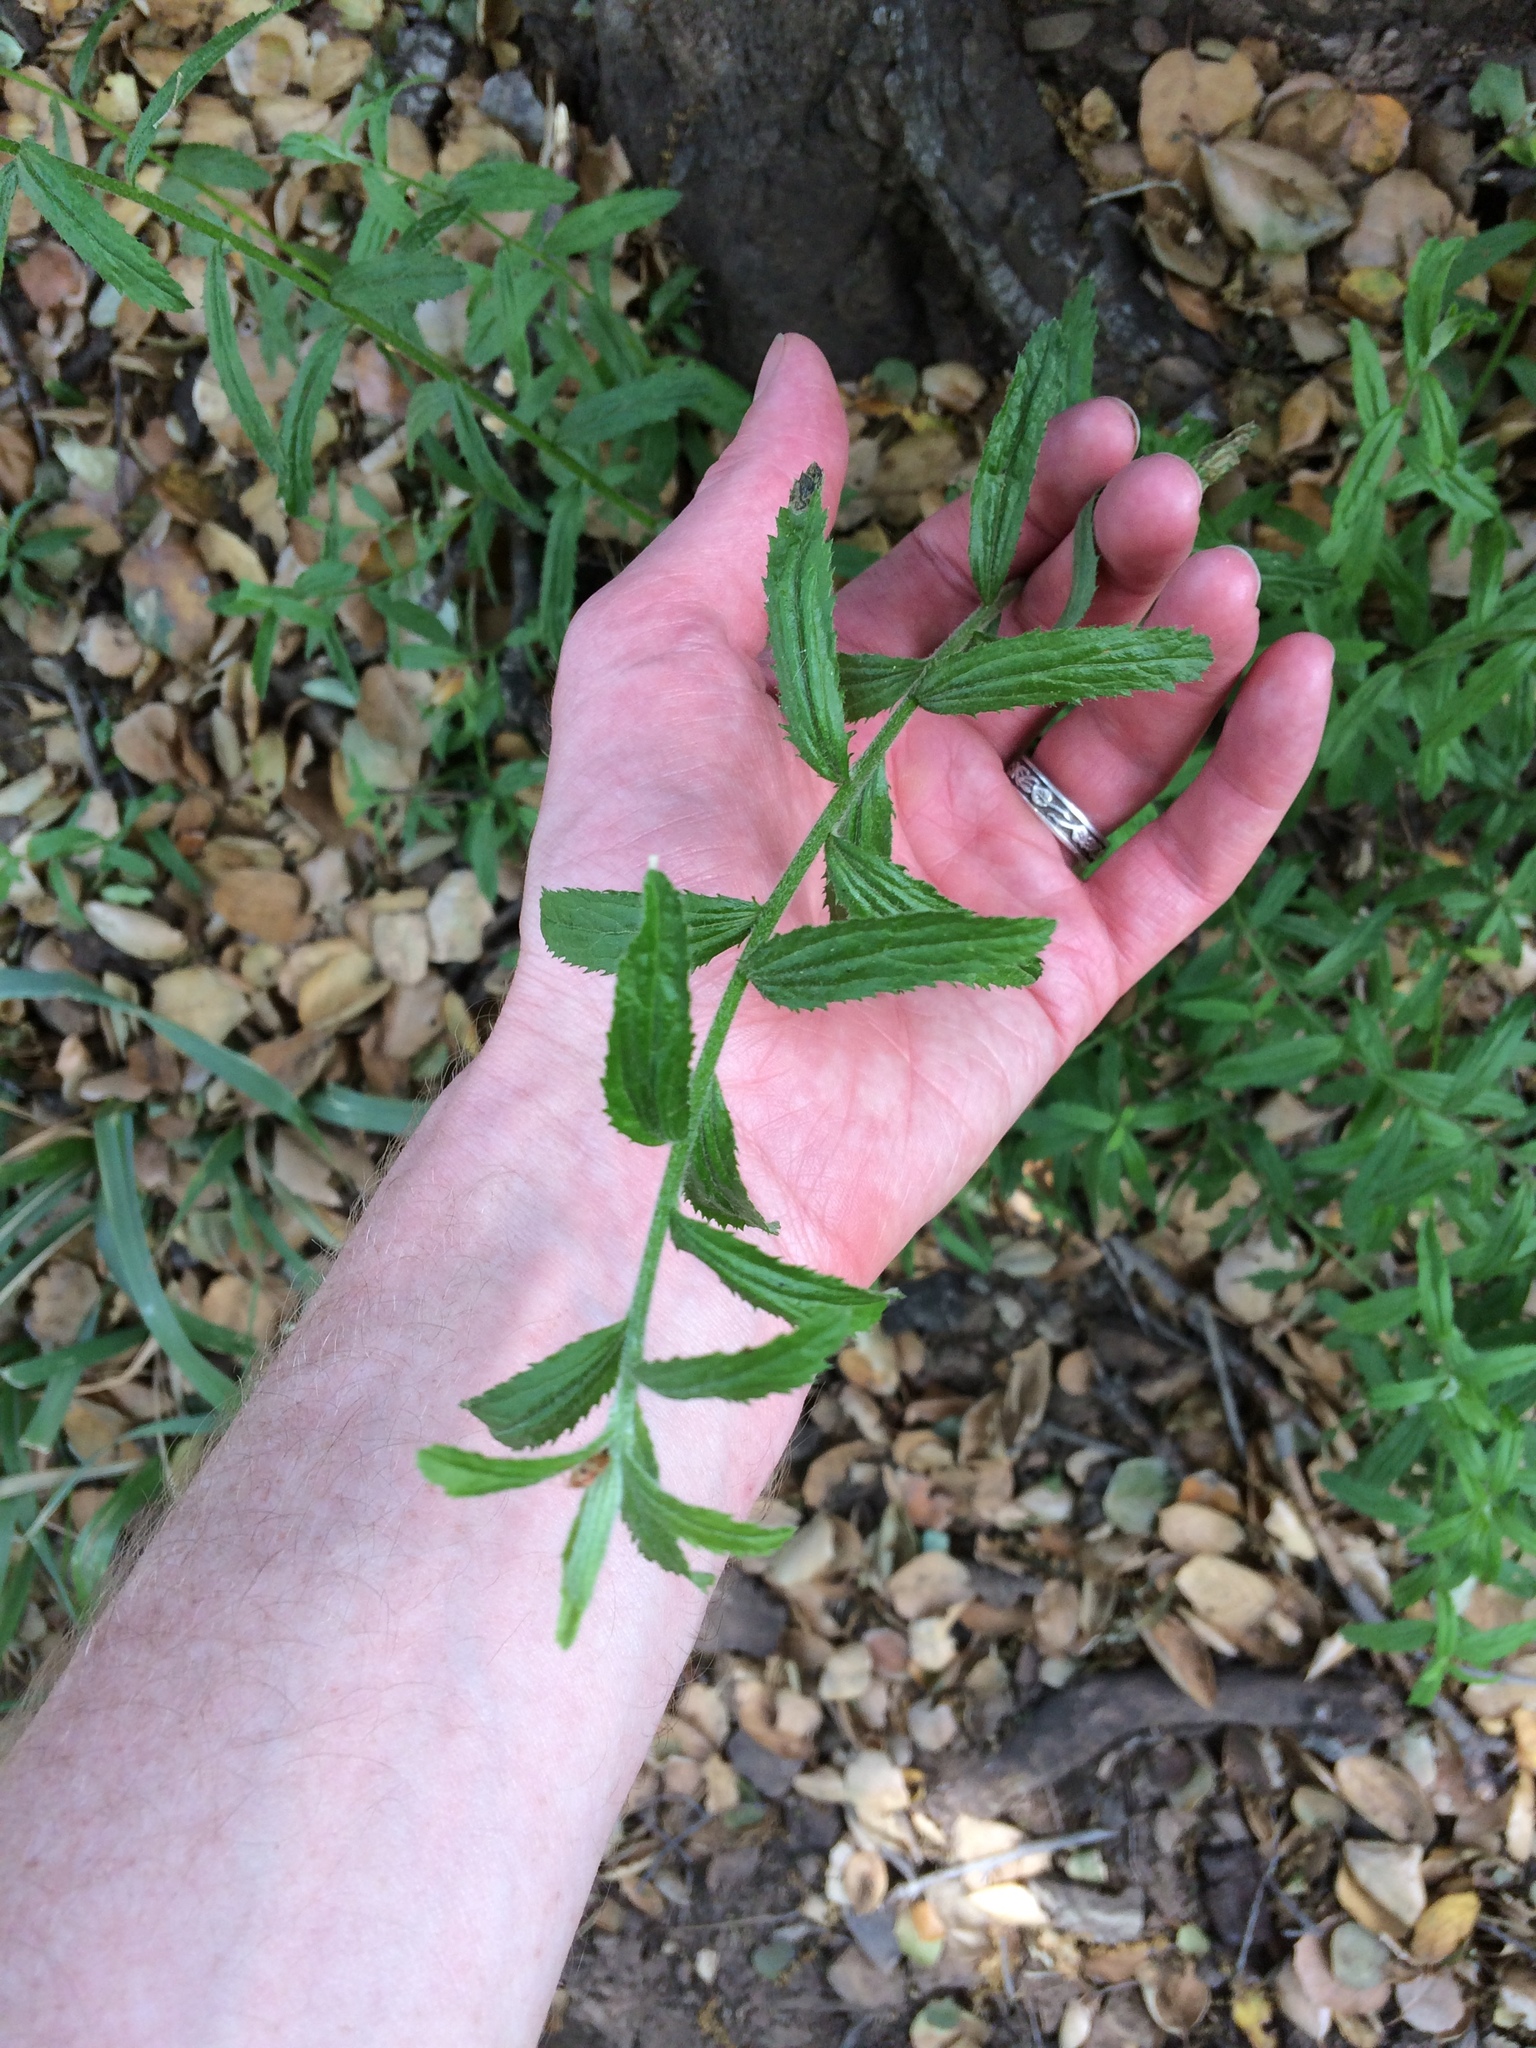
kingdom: Plantae
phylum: Tracheophyta
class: Magnoliopsida
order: Asterales
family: Asteraceae
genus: Baccharis
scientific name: Baccharis plummerae
